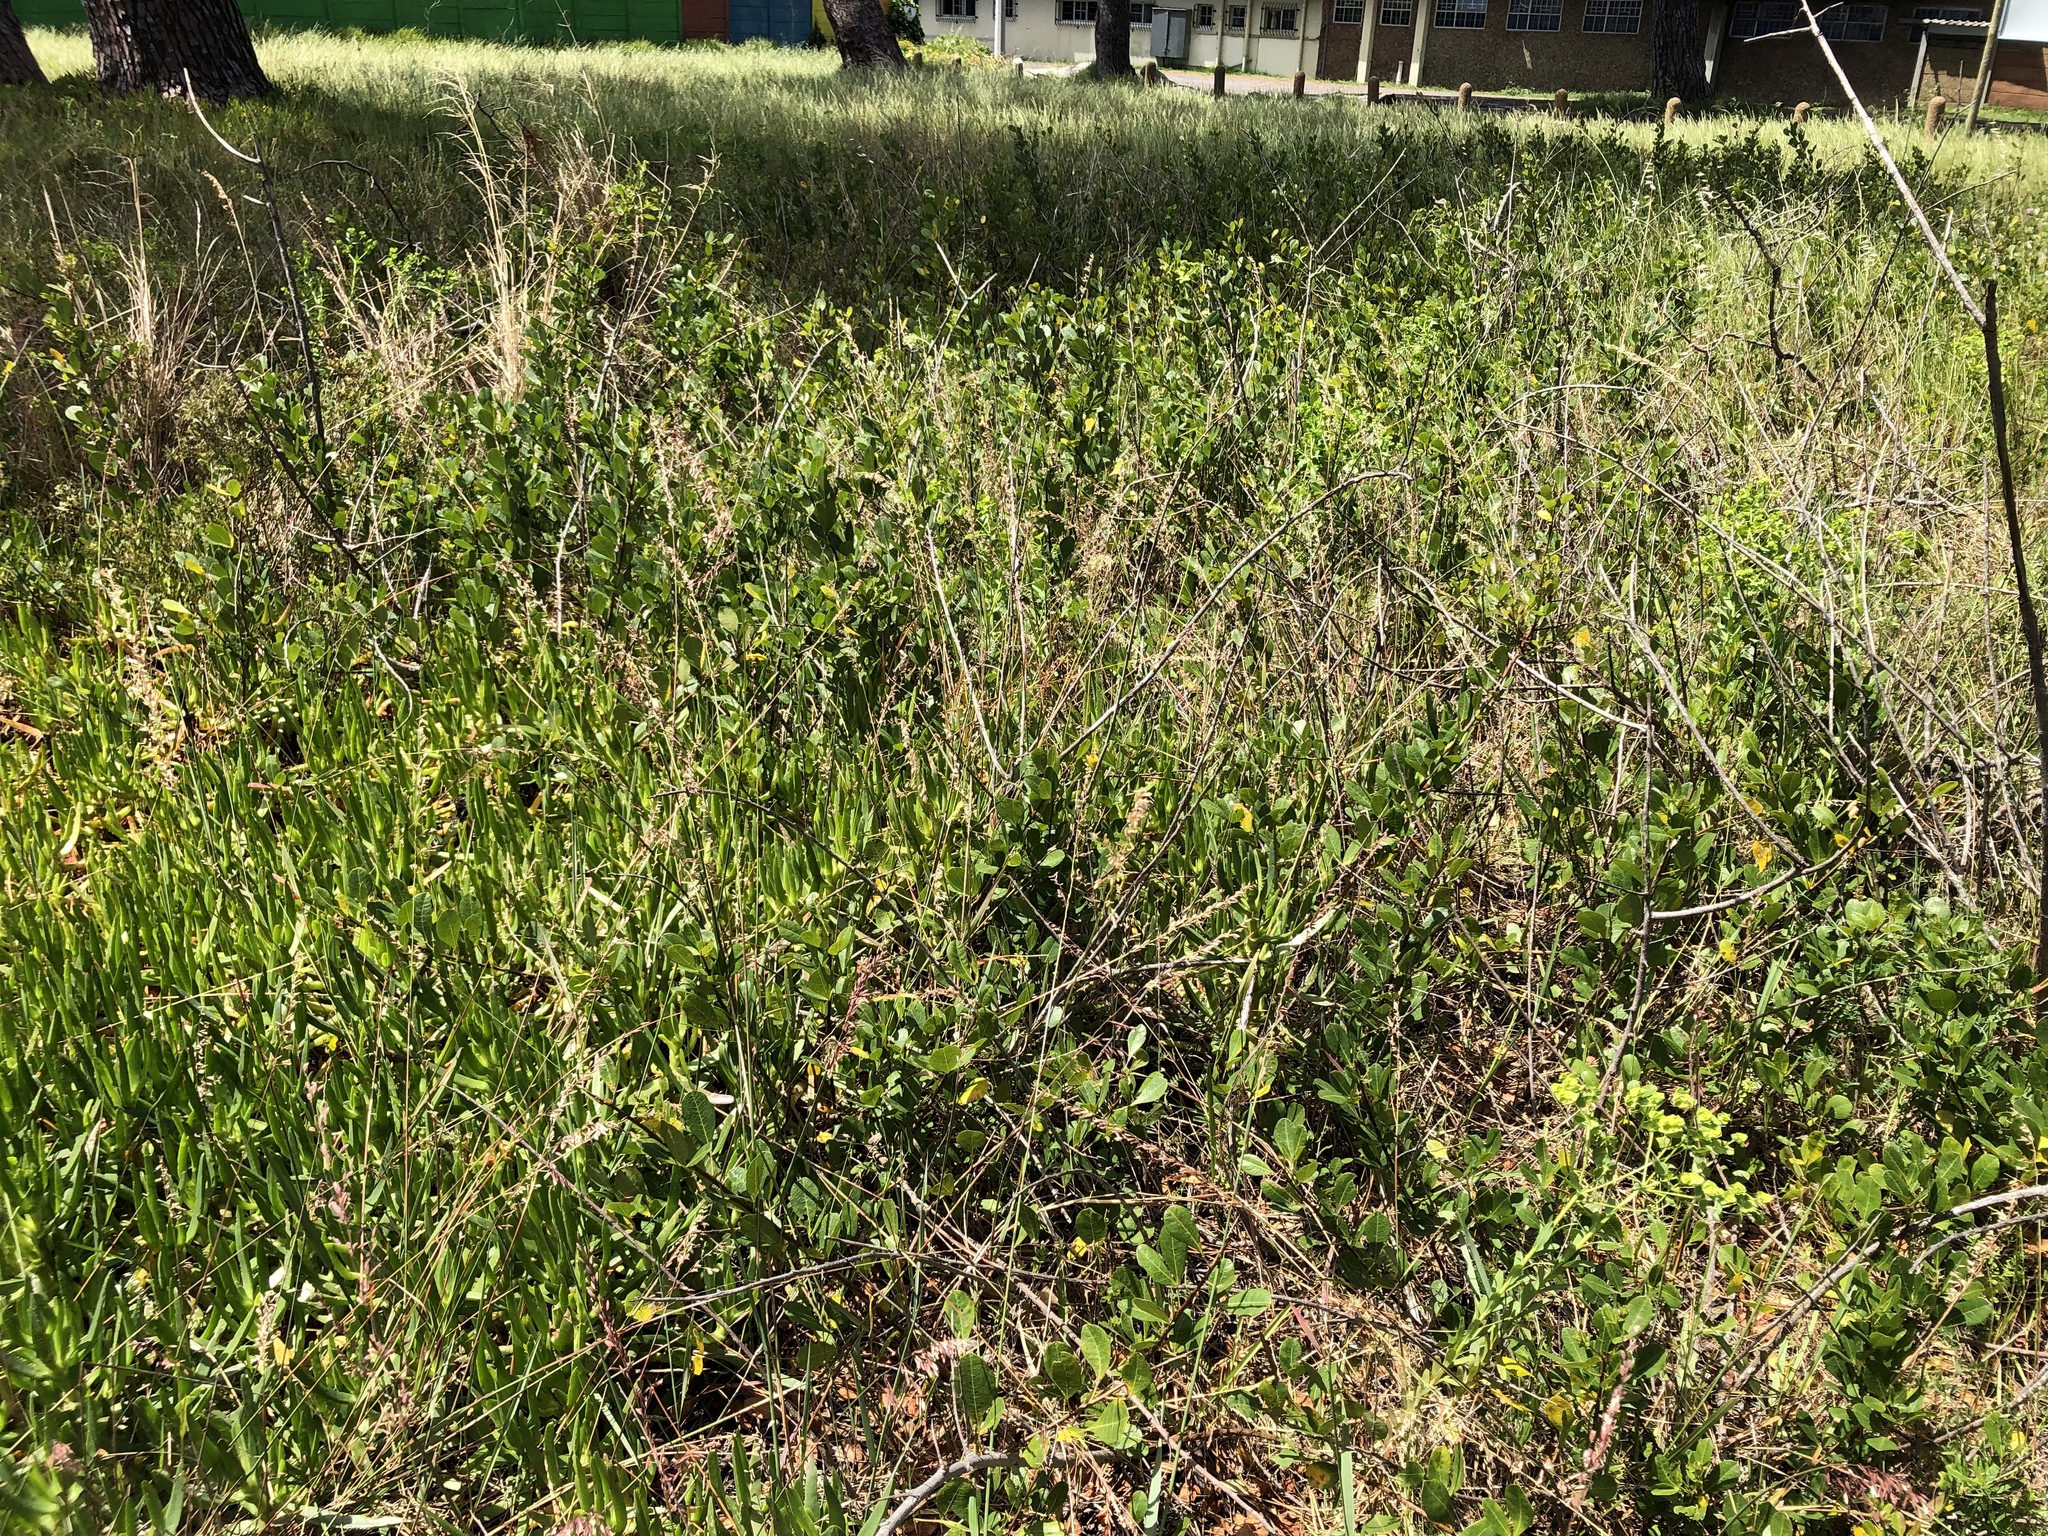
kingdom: Plantae
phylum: Tracheophyta
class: Magnoliopsida
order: Sapindales
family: Anacardiaceae
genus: Searsia
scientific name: Searsia laevigata
